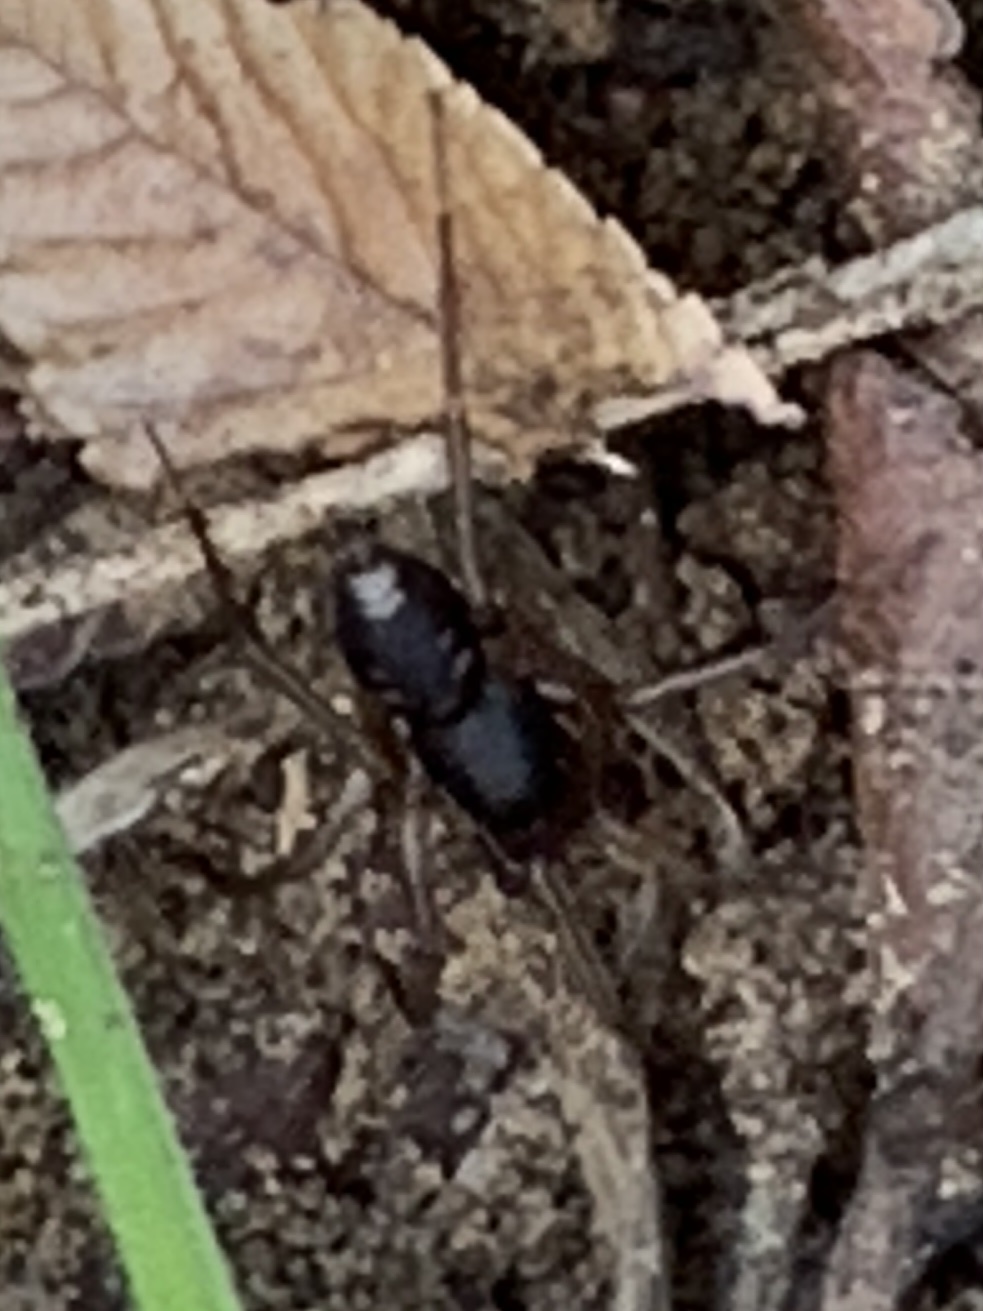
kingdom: Animalia
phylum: Arthropoda
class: Arachnida
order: Araneae
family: Corinnidae
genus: Falconina
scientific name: Falconina gracilis
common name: Antmimic spider
